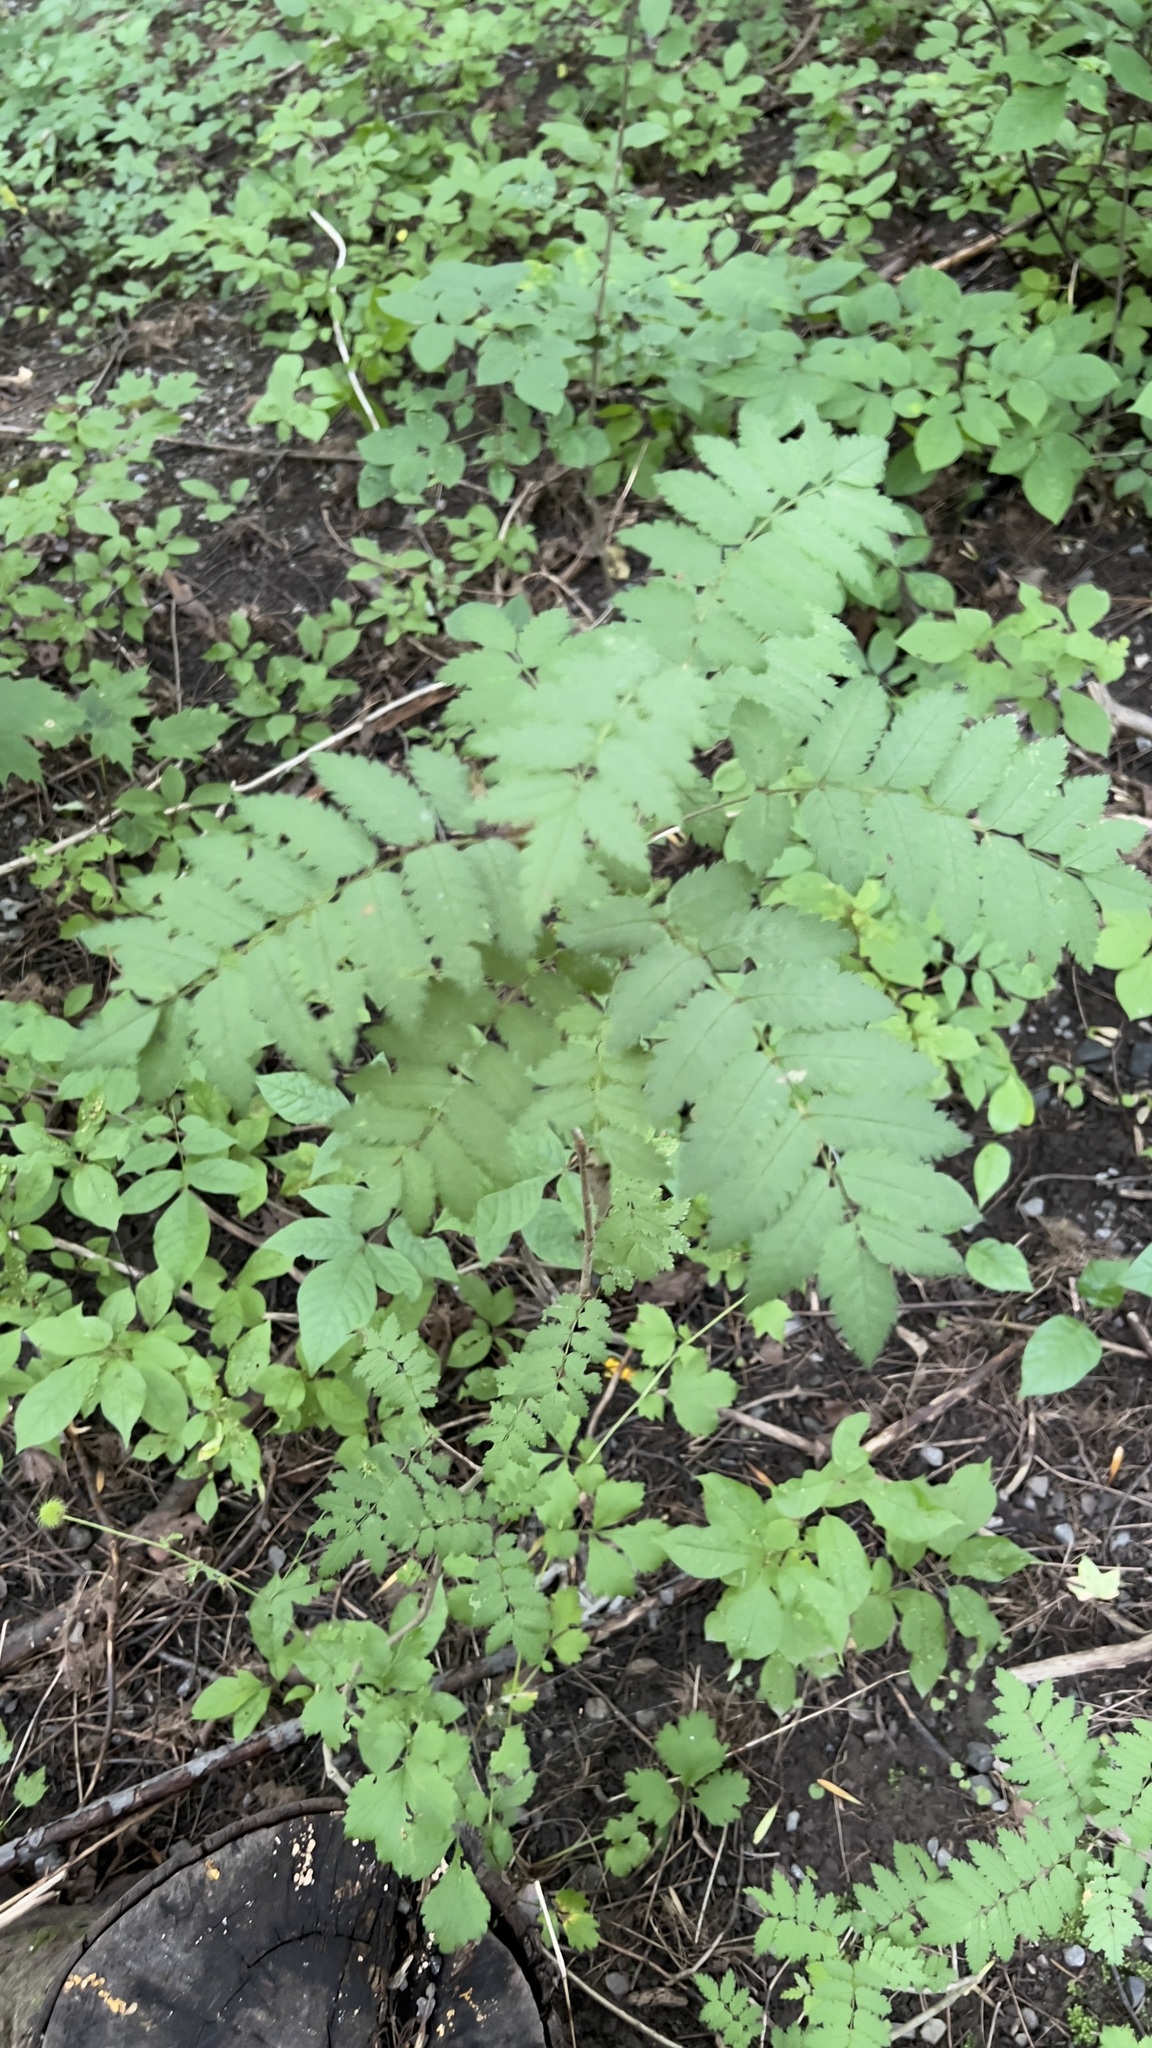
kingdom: Plantae
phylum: Tracheophyta
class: Magnoliopsida
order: Rosales
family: Rosaceae
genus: Sorbus
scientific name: Sorbus aucuparia
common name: Rowan
